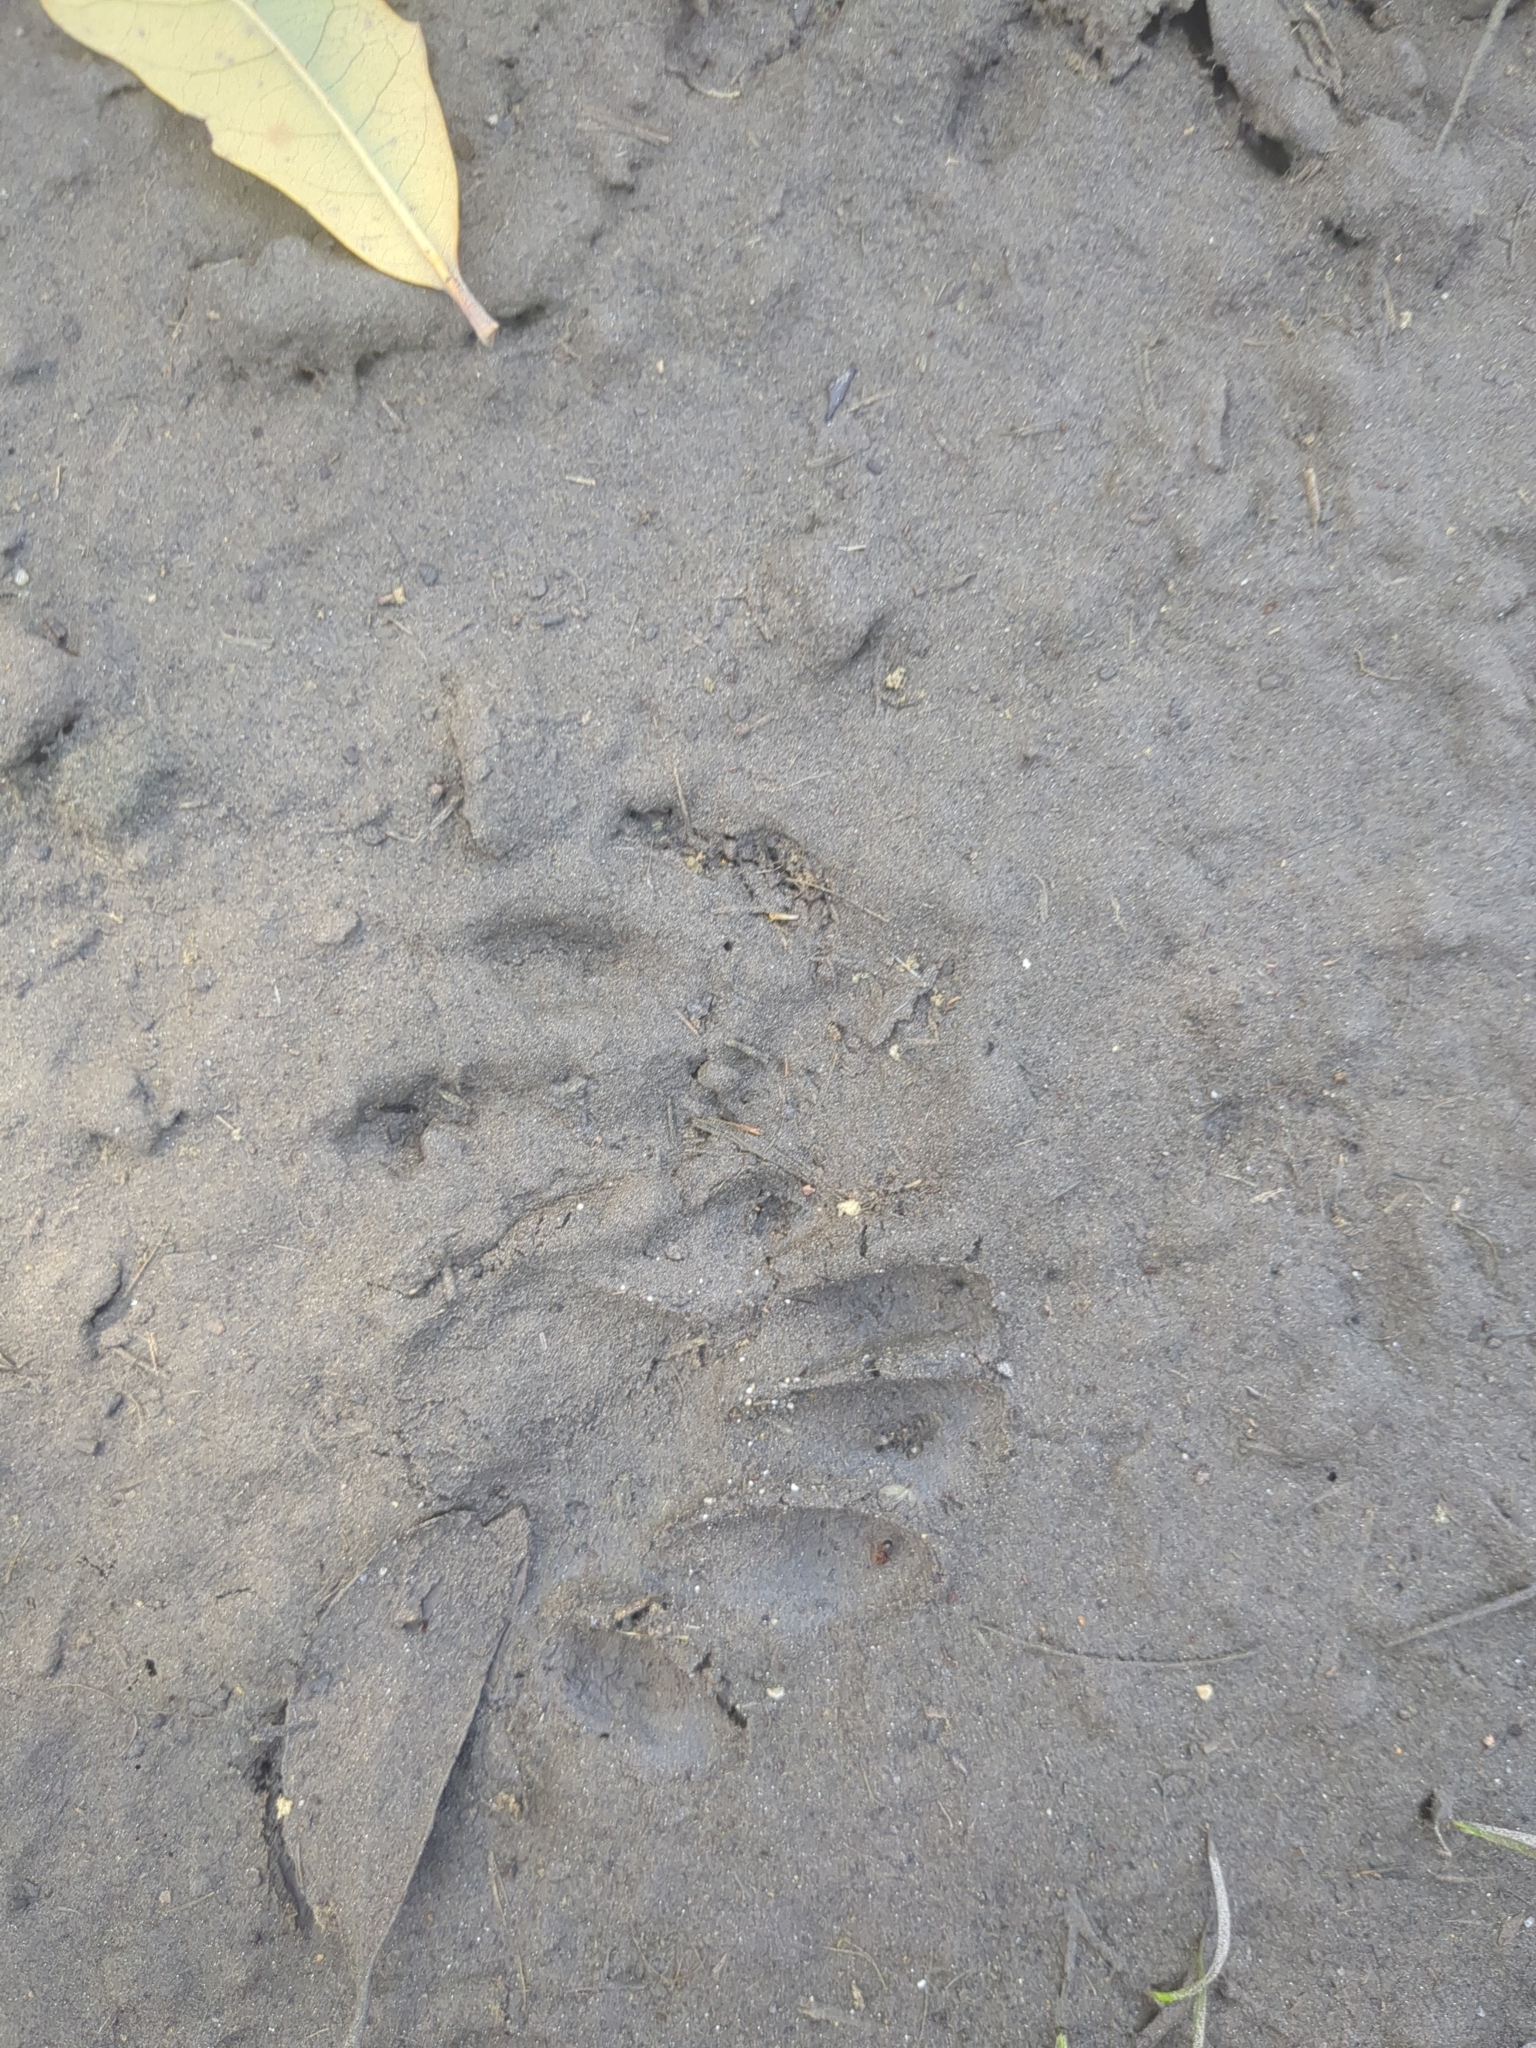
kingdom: Animalia
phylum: Chordata
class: Mammalia
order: Carnivora
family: Procyonidae
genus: Procyon
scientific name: Procyon lotor
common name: Raccoon
